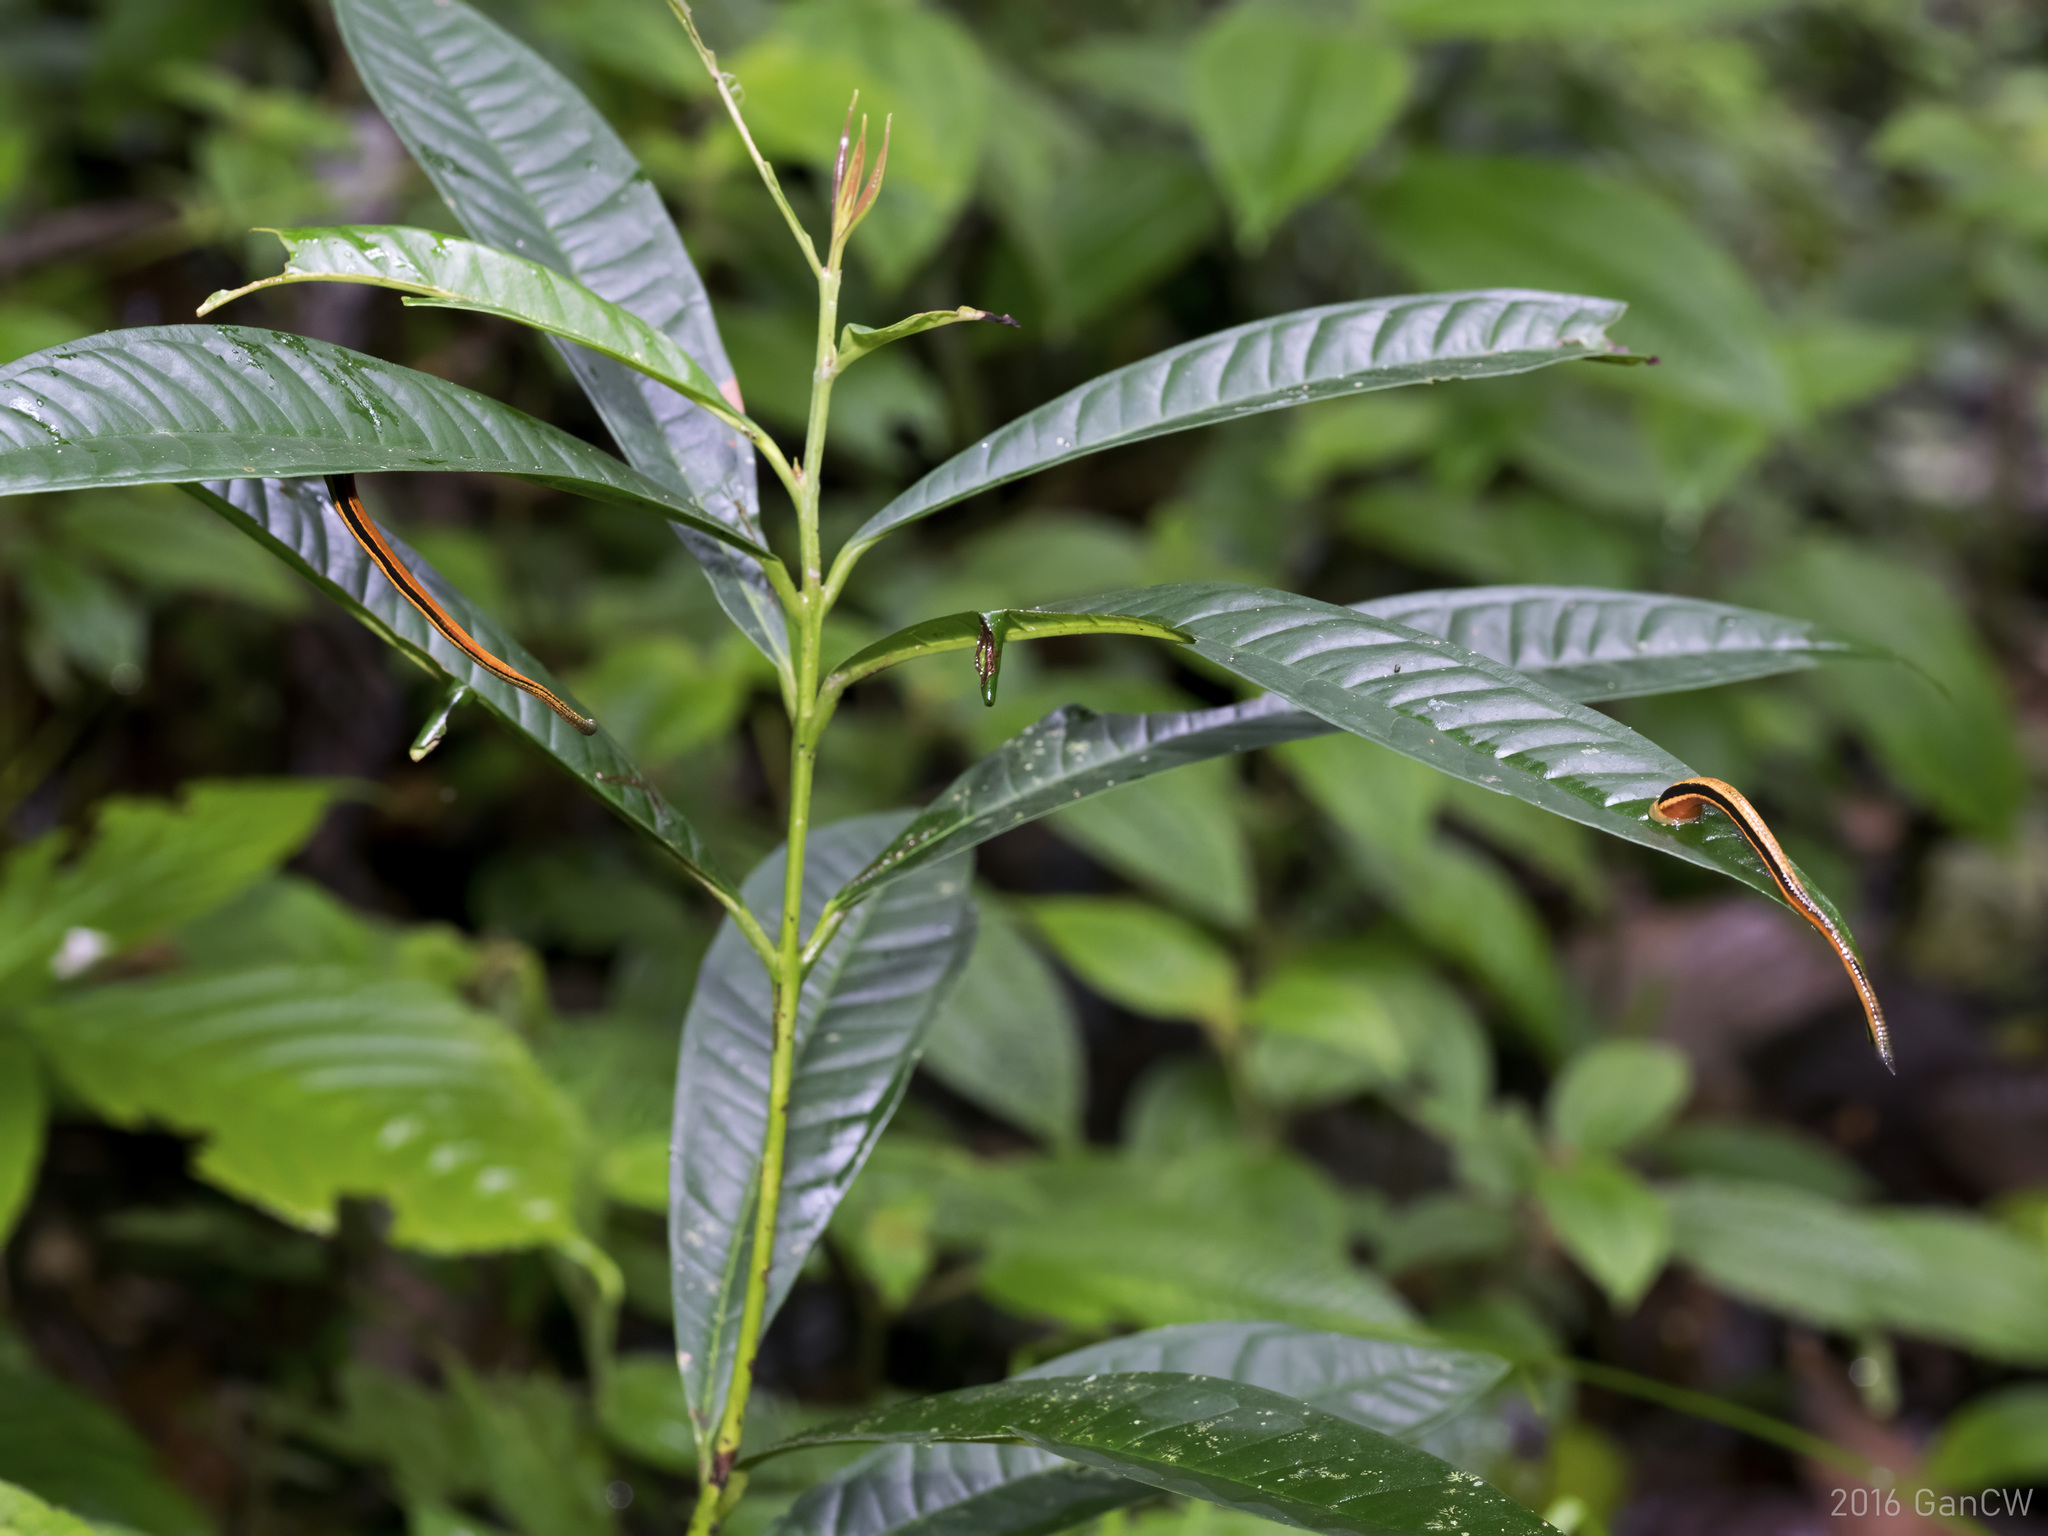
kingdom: Animalia
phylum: Annelida
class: Clitellata
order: Arhynchobdellida
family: Haemadipsidae
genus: Haemadipsa
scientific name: Haemadipsa picta
